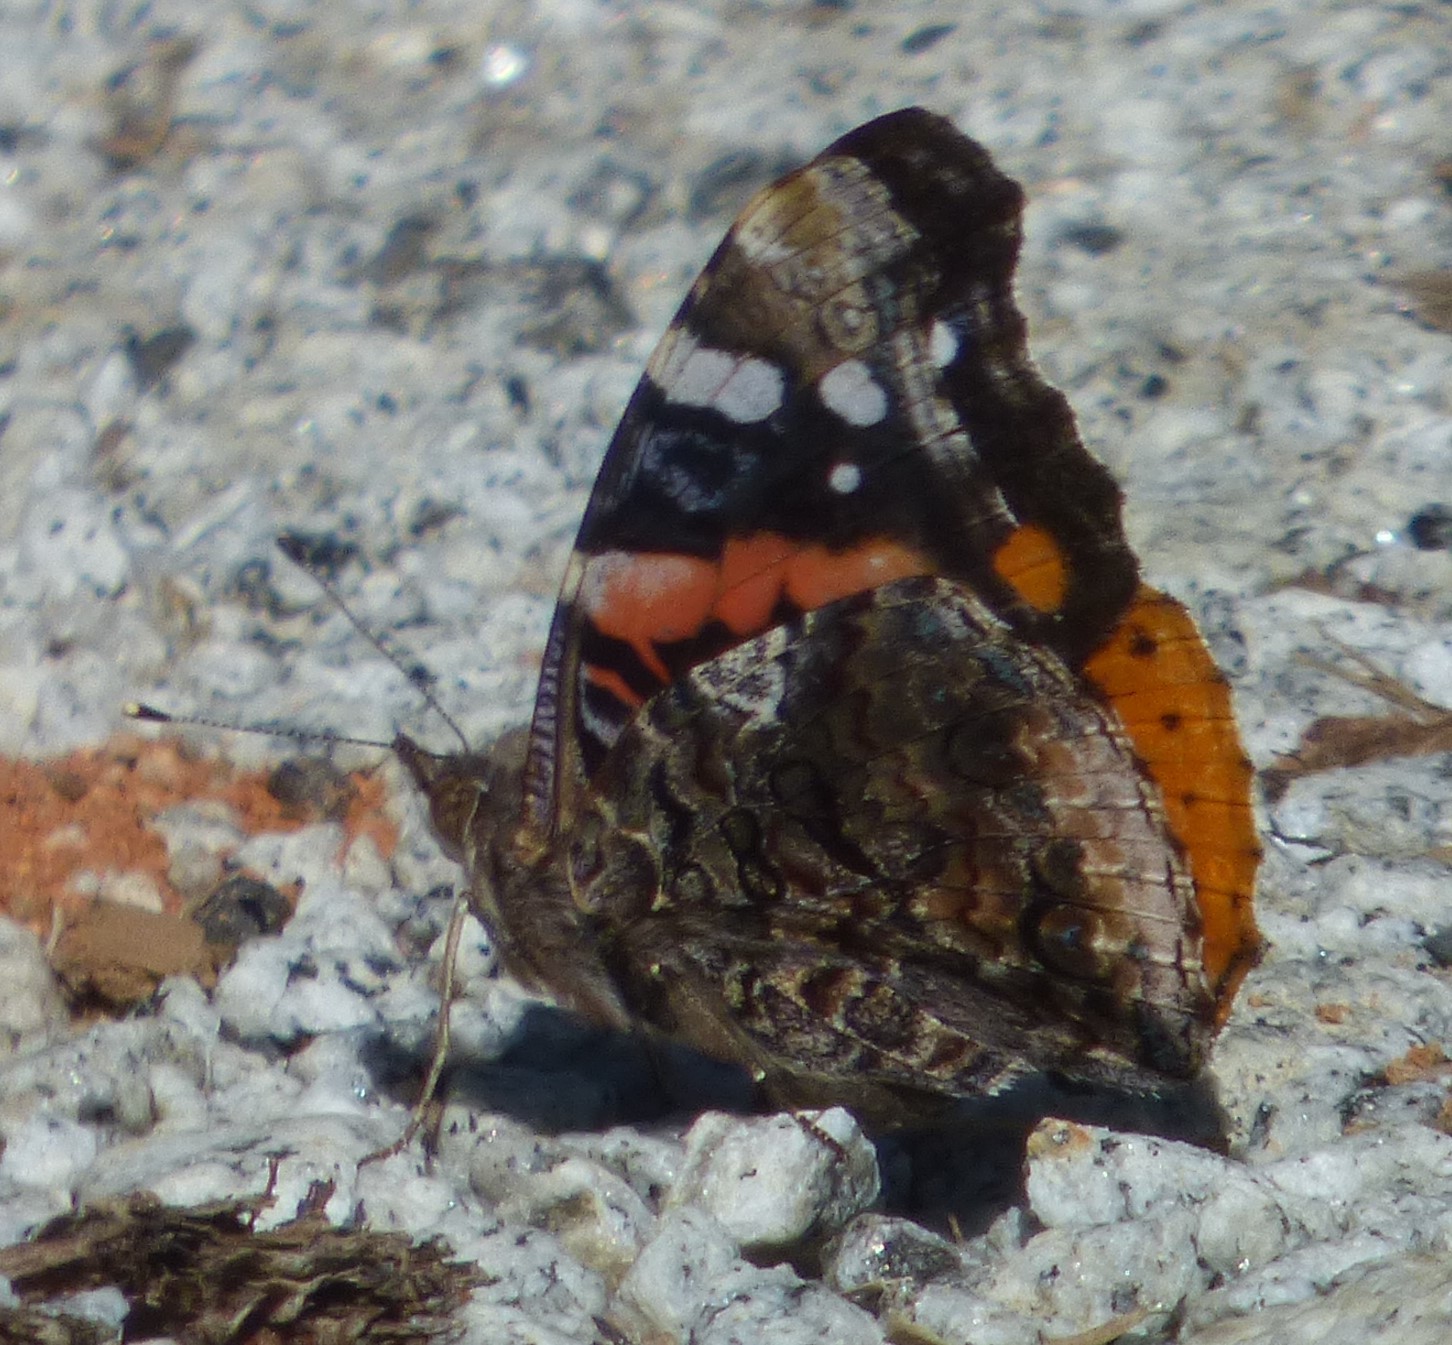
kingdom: Animalia
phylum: Arthropoda
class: Insecta
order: Lepidoptera
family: Nymphalidae
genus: Vanessa
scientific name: Vanessa atalanta
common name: Red admiral
